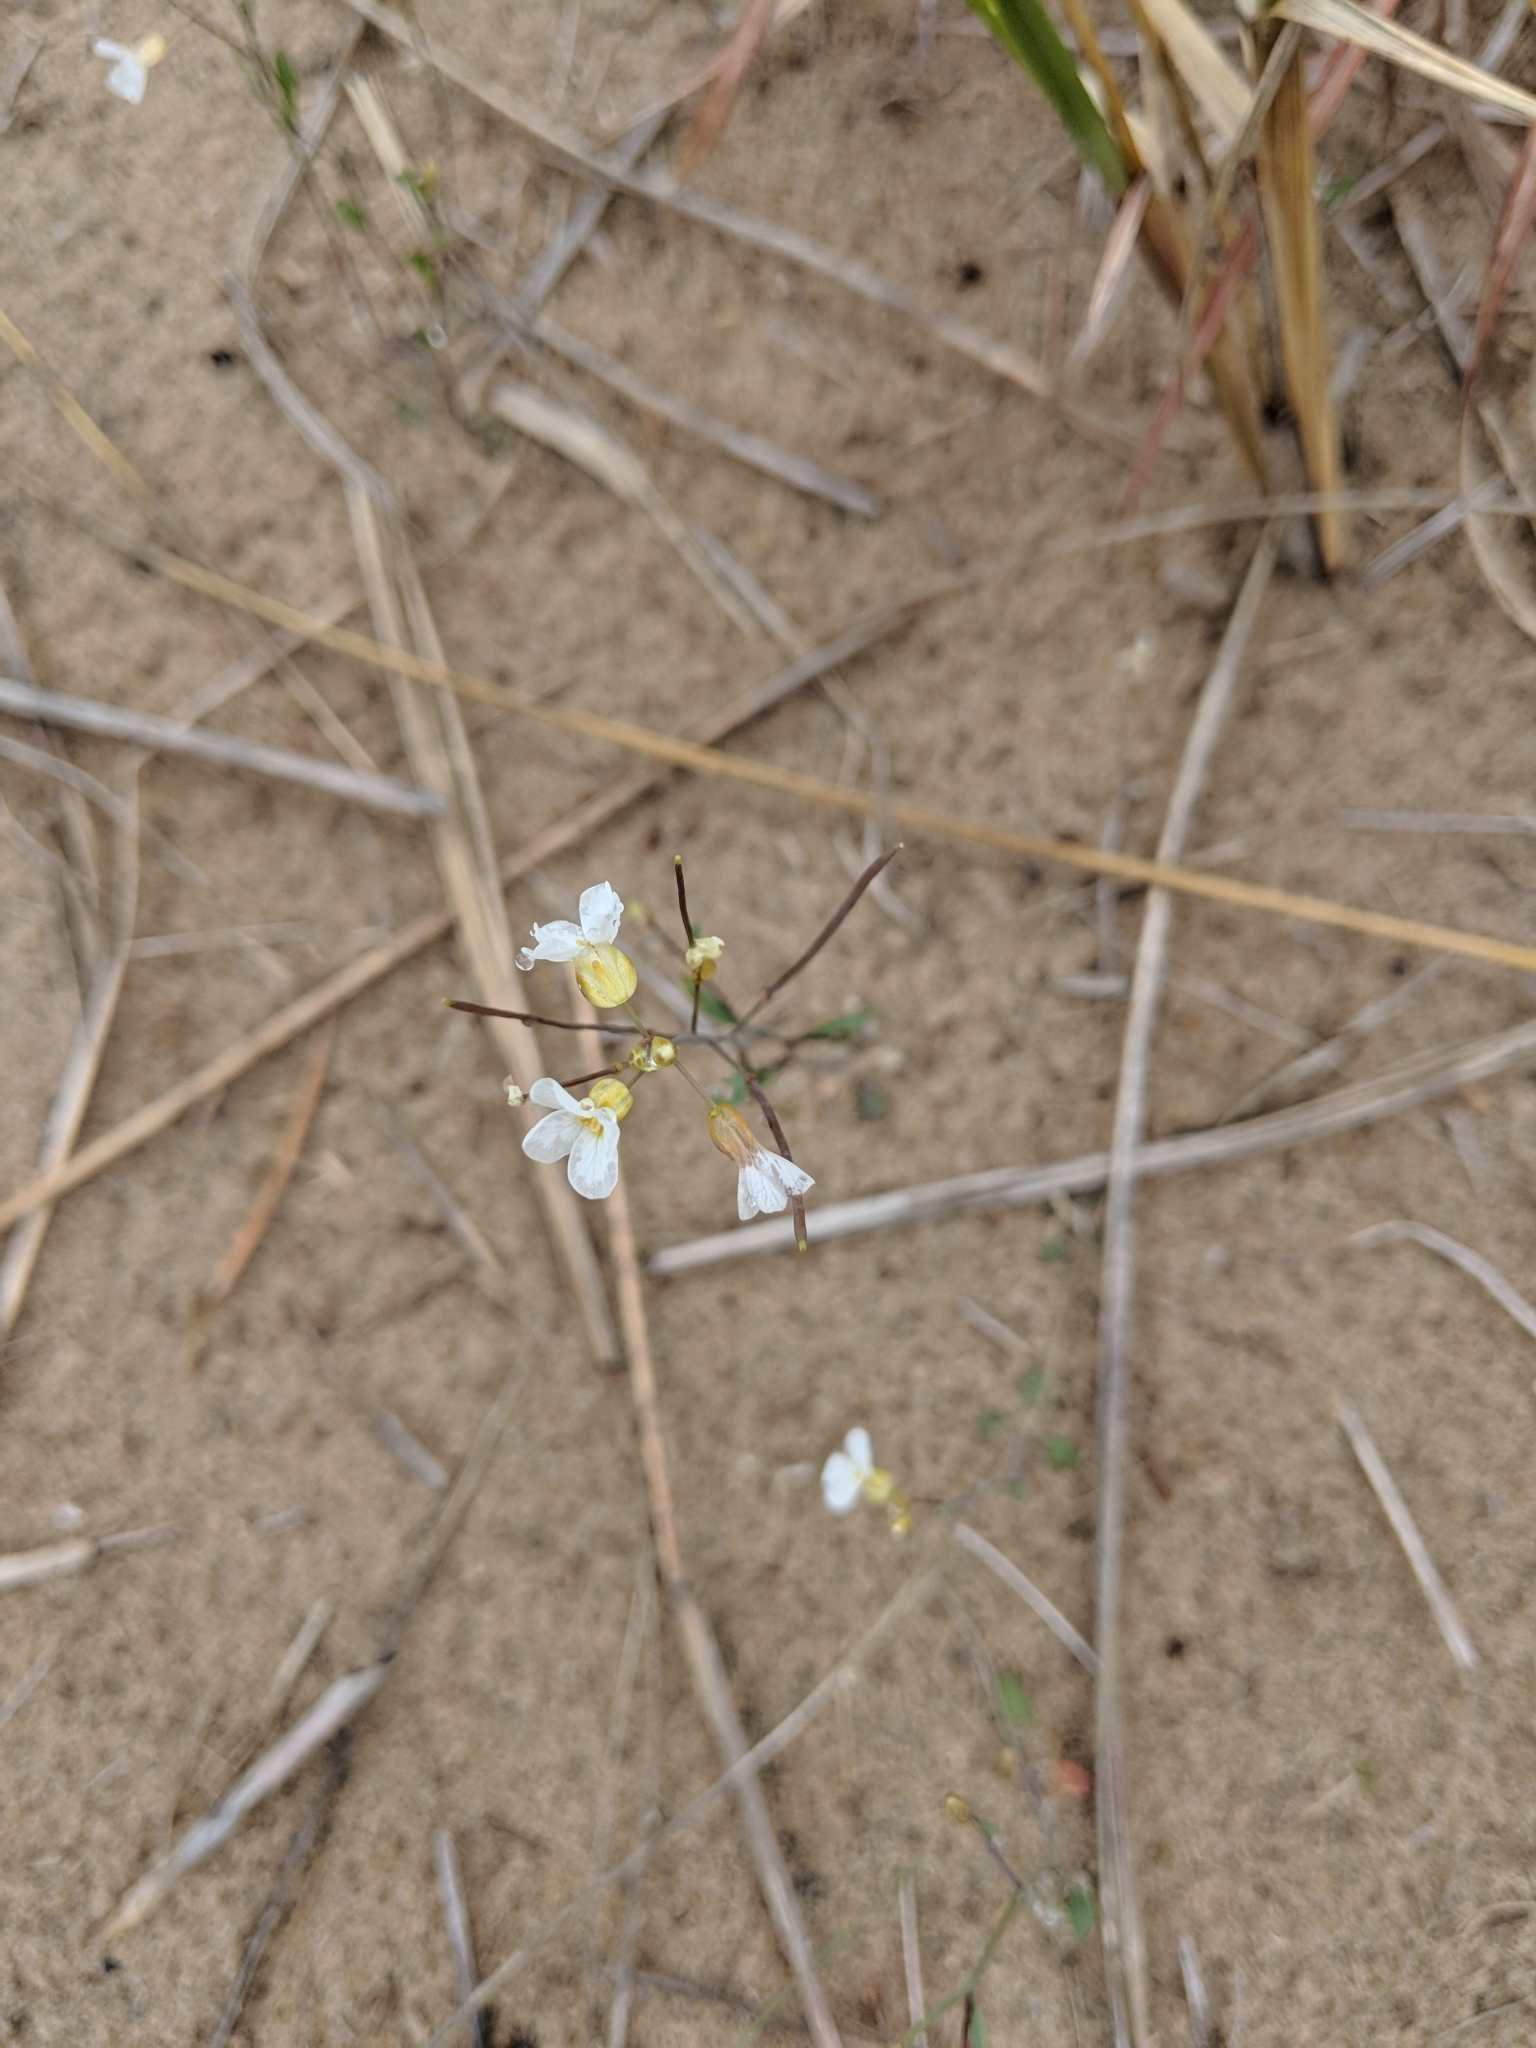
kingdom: Plantae
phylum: Tracheophyta
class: Magnoliopsida
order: Brassicales
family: Brassicaceae
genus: Arabidopsis
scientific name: Arabidopsis lyrata
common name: Lyrate rockcress
